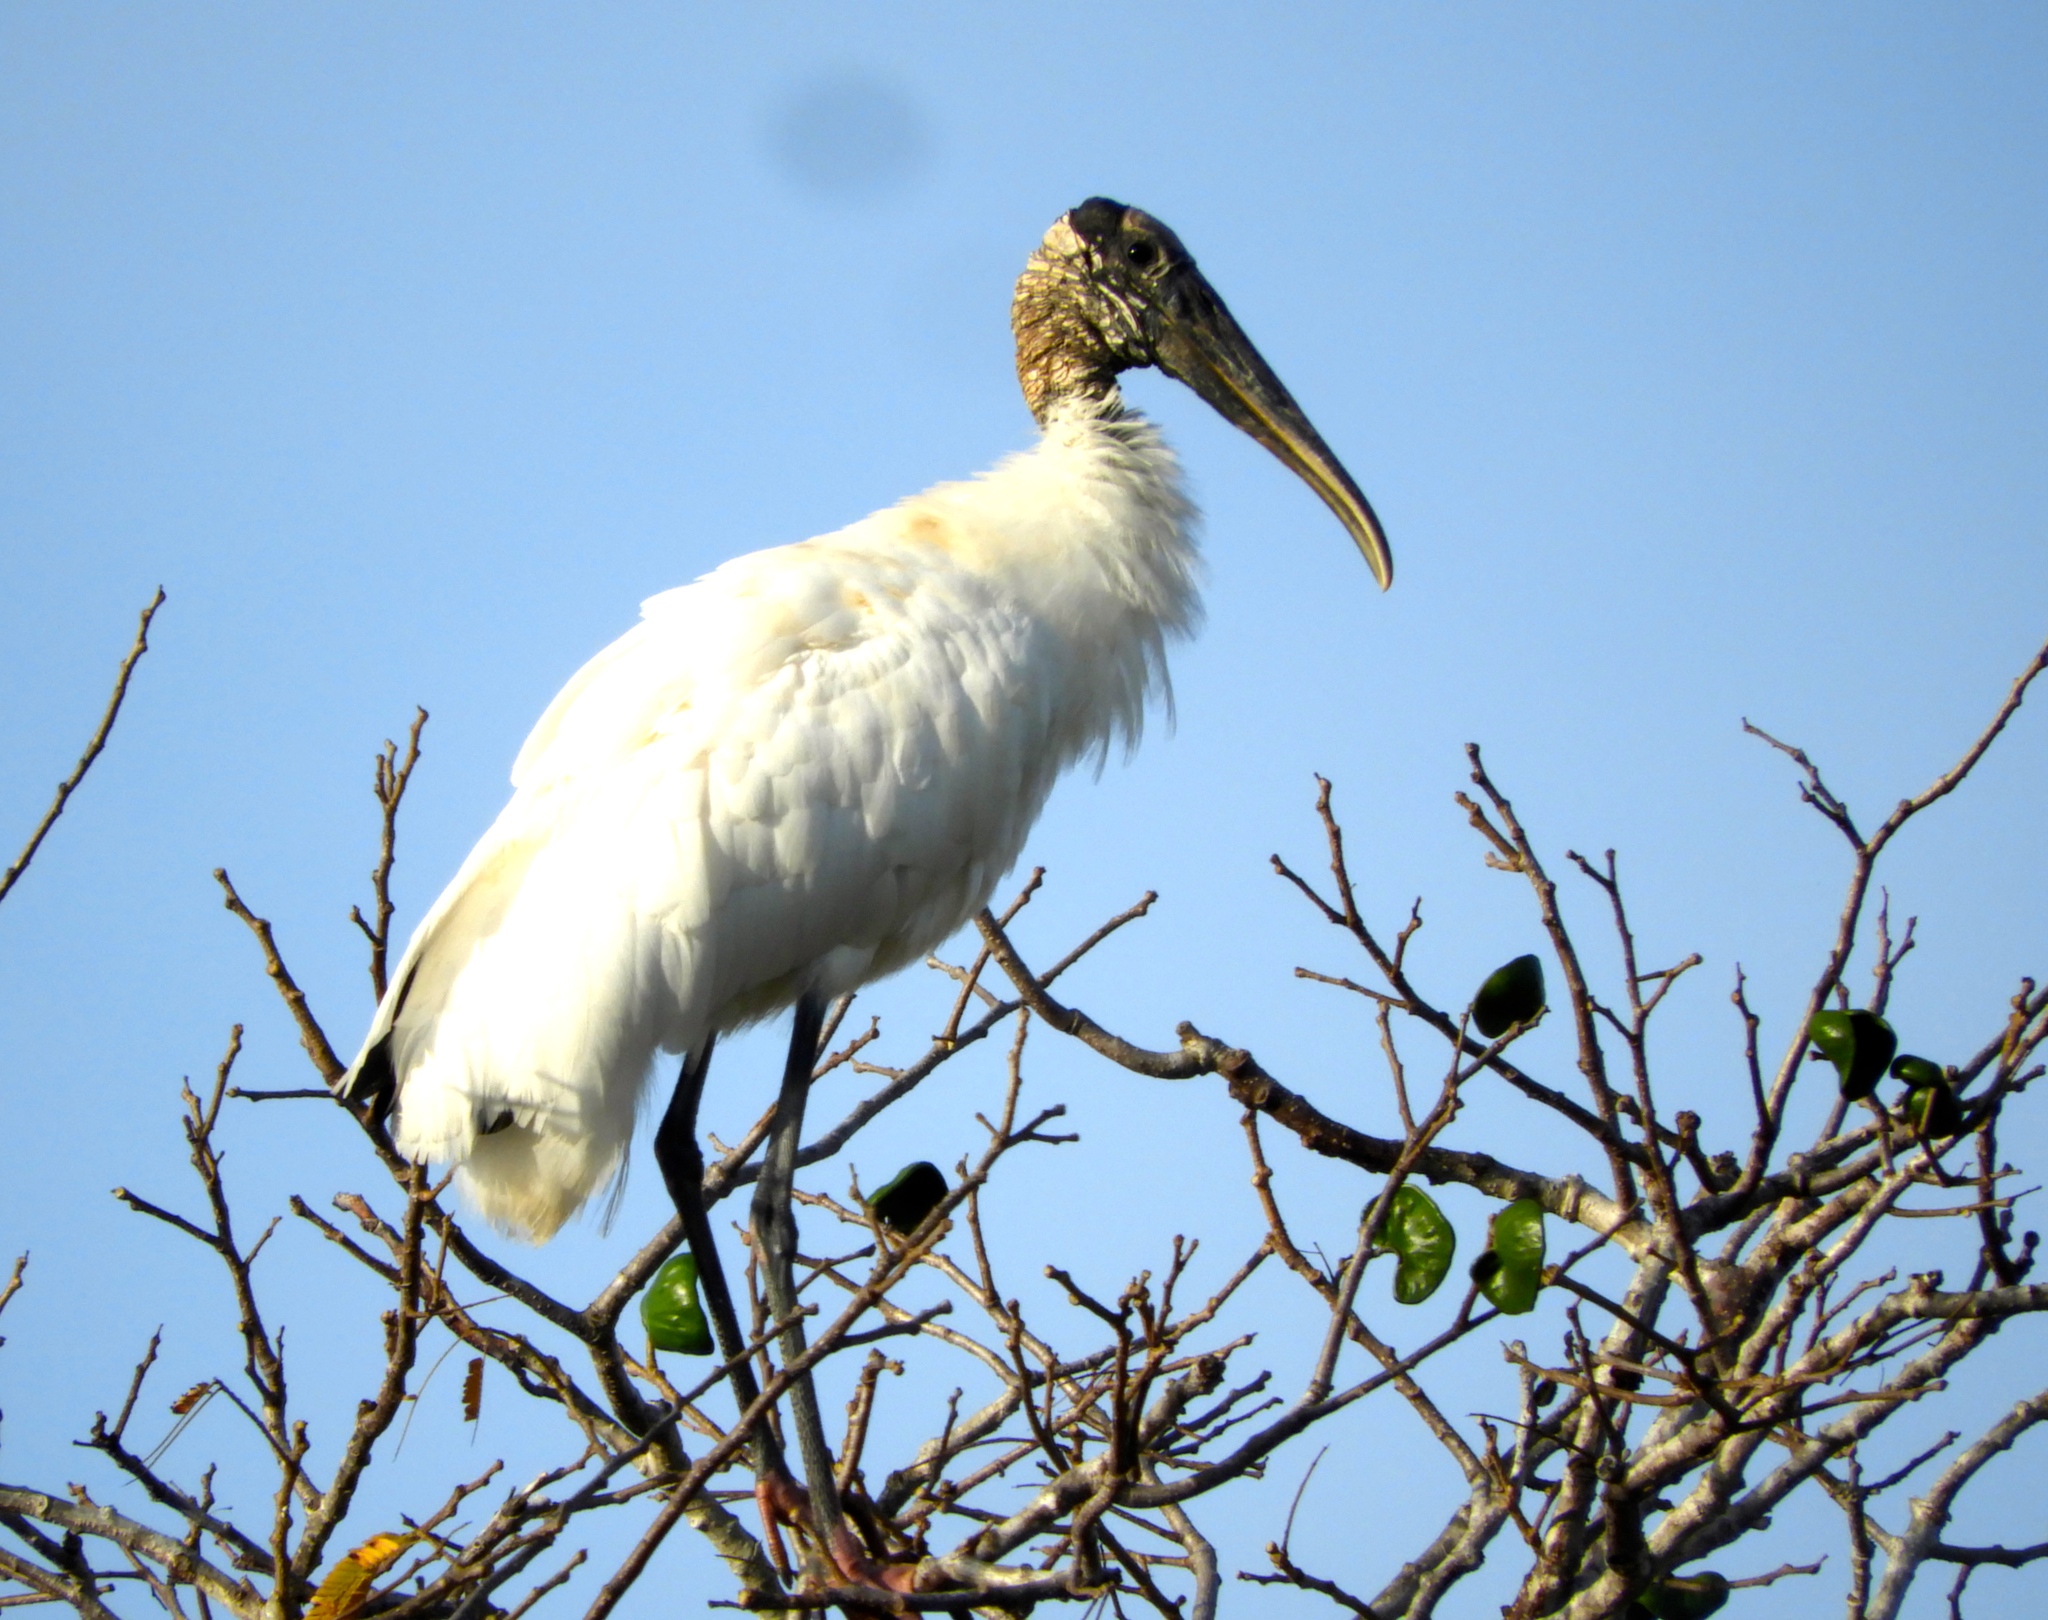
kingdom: Animalia
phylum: Chordata
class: Aves
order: Ciconiiformes
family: Ciconiidae
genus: Mycteria
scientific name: Mycteria americana
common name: Wood stork
